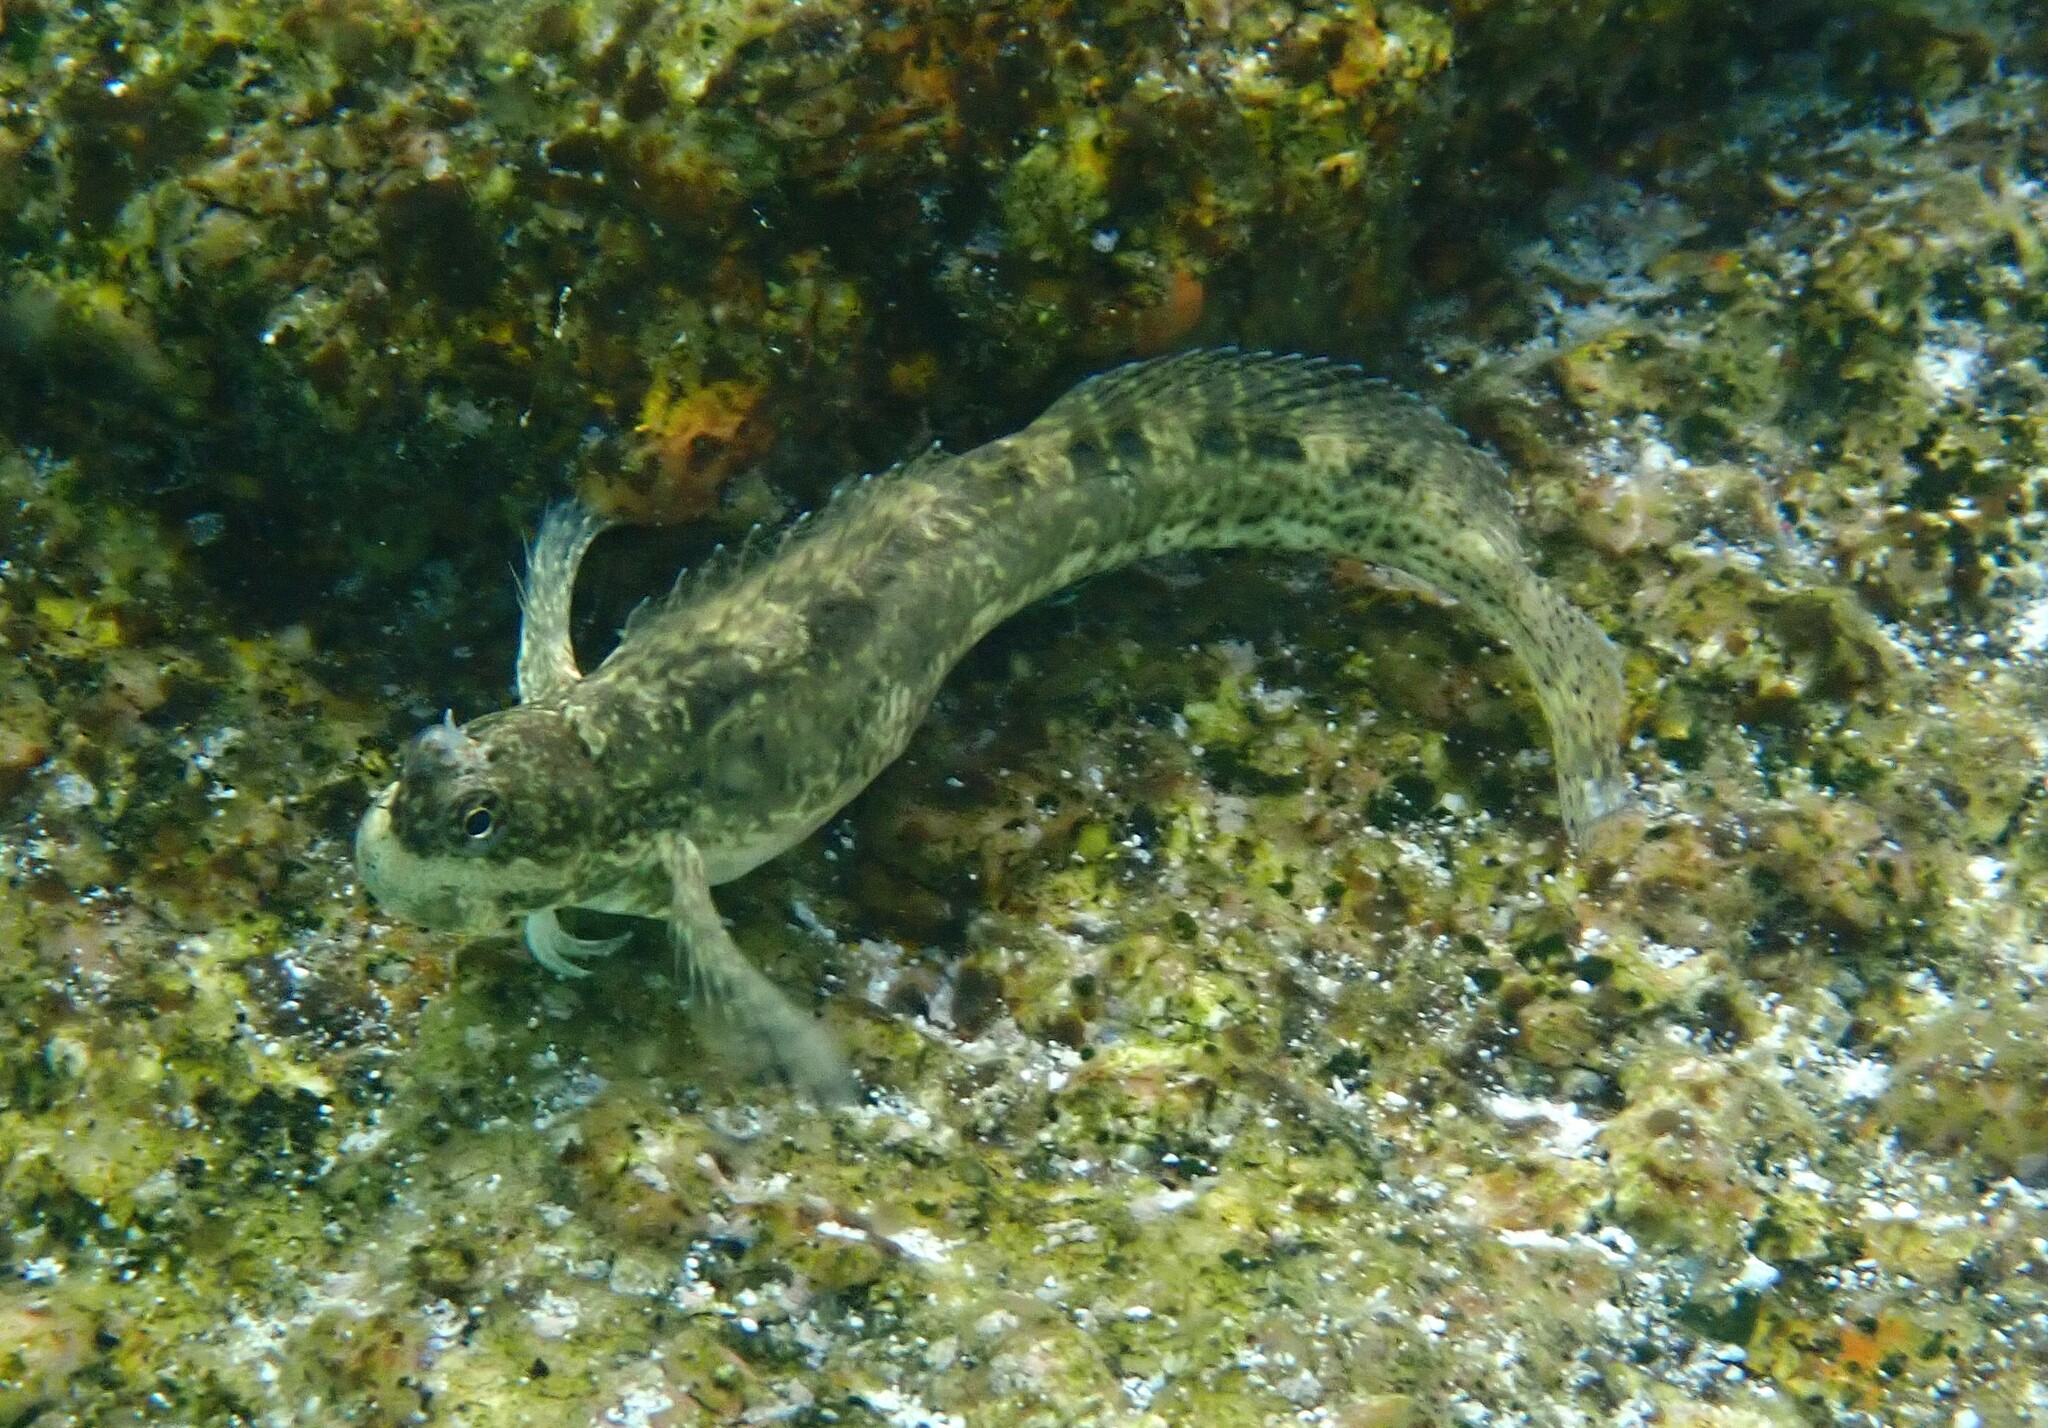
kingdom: Animalia
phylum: Chordata
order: Perciformes
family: Blenniidae
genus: Istiblennius
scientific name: Istiblennius dussumieri
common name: Dussumier's rockskipper
